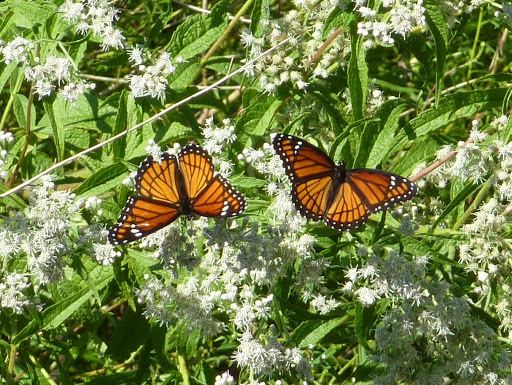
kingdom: Animalia
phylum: Arthropoda
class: Insecta
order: Lepidoptera
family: Nymphalidae
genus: Limenitis
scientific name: Limenitis archippus
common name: Viceroy
